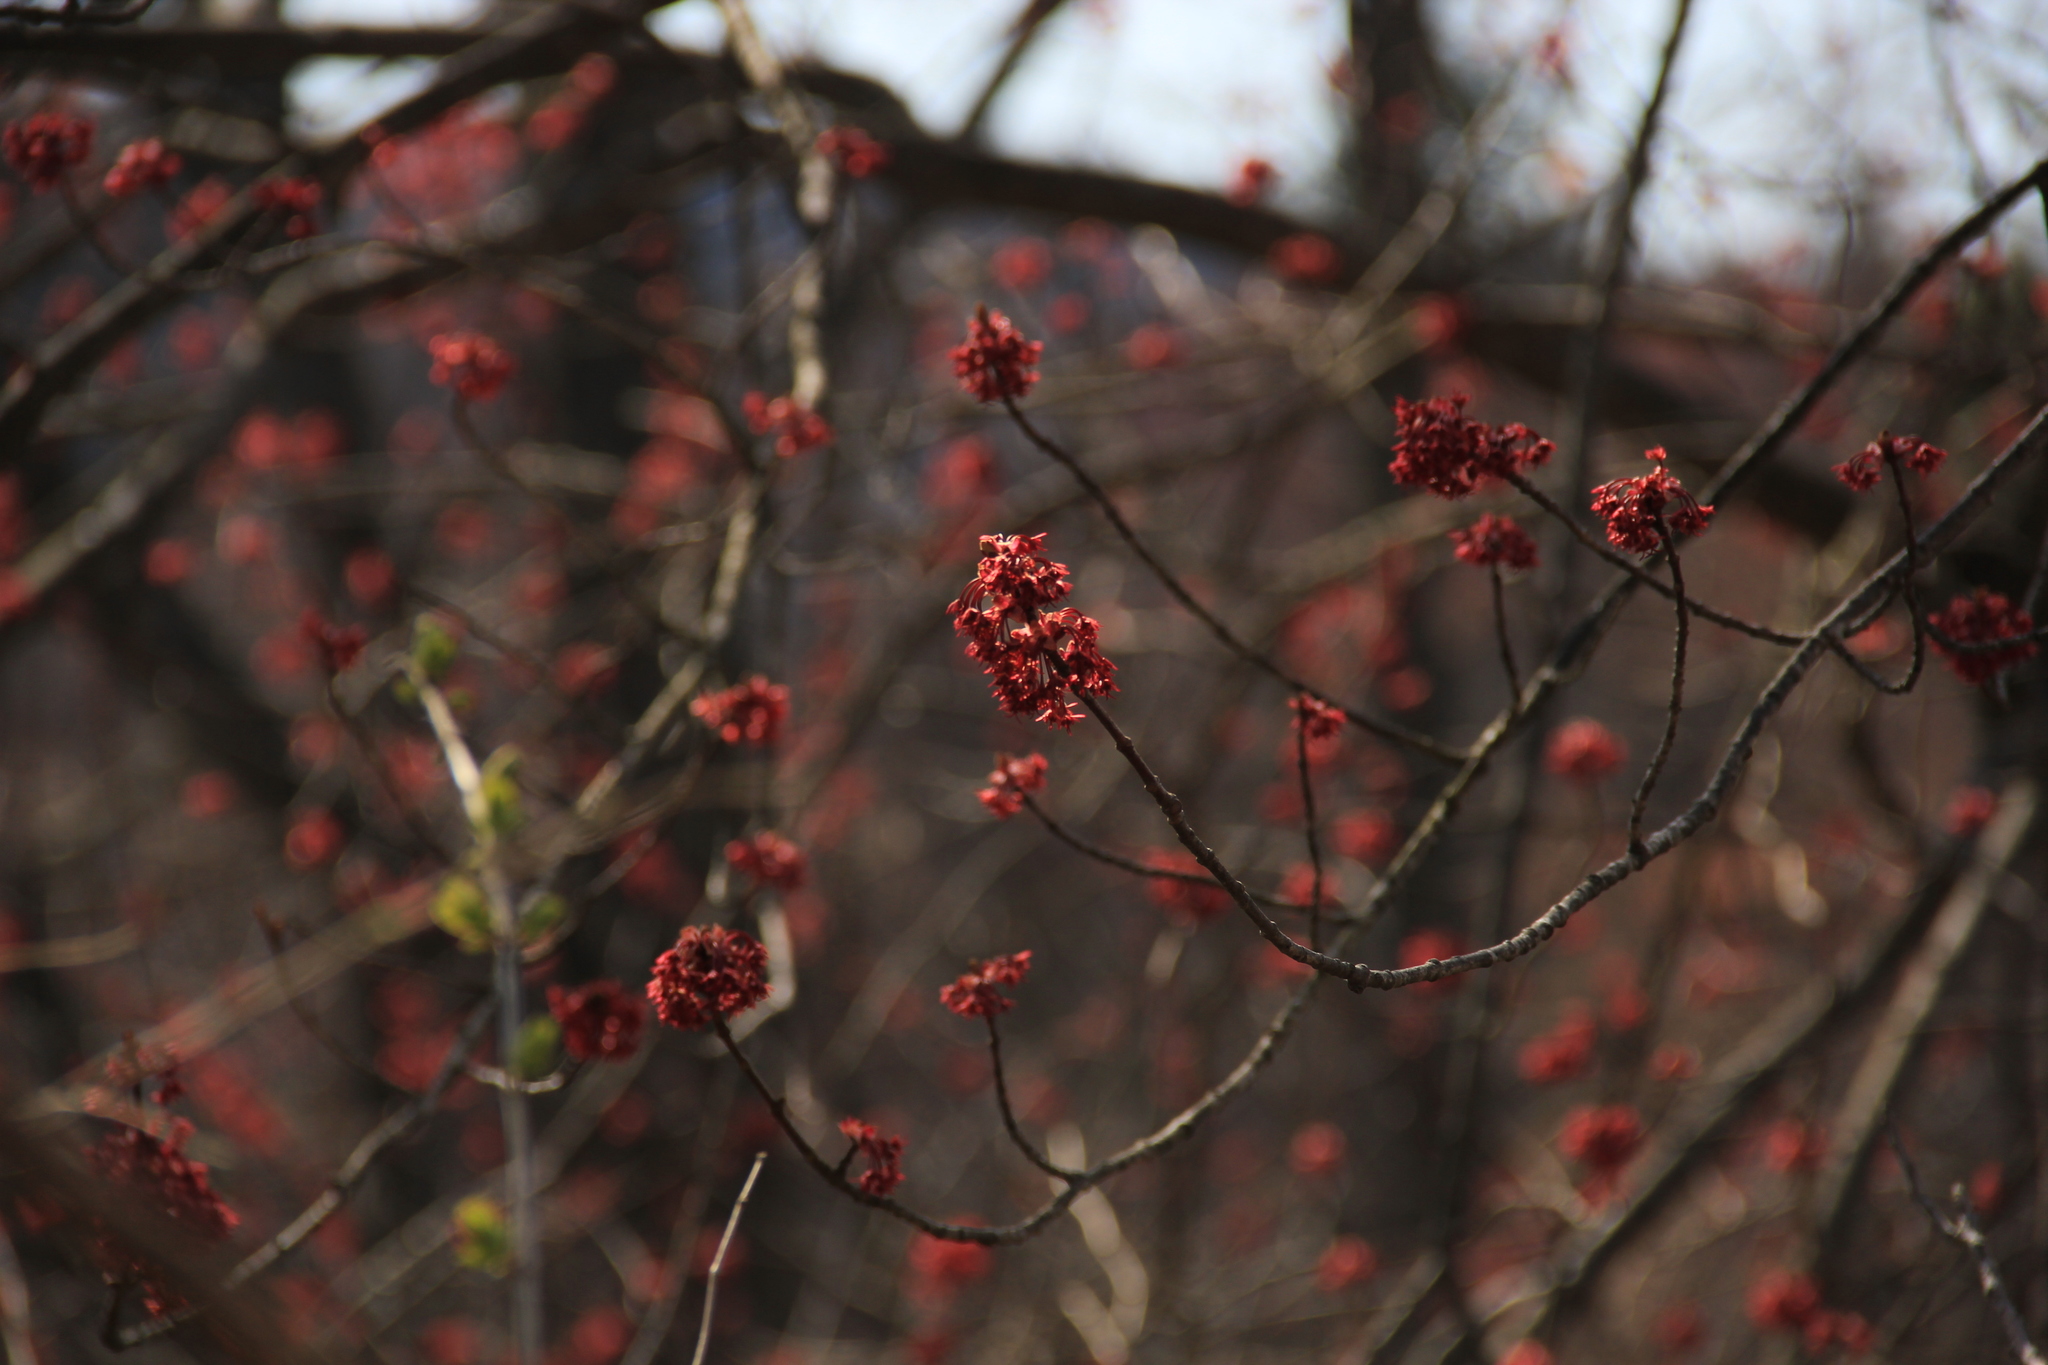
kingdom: Plantae
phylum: Tracheophyta
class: Magnoliopsida
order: Sapindales
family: Sapindaceae
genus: Acer
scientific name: Acer rubrum
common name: Red maple
